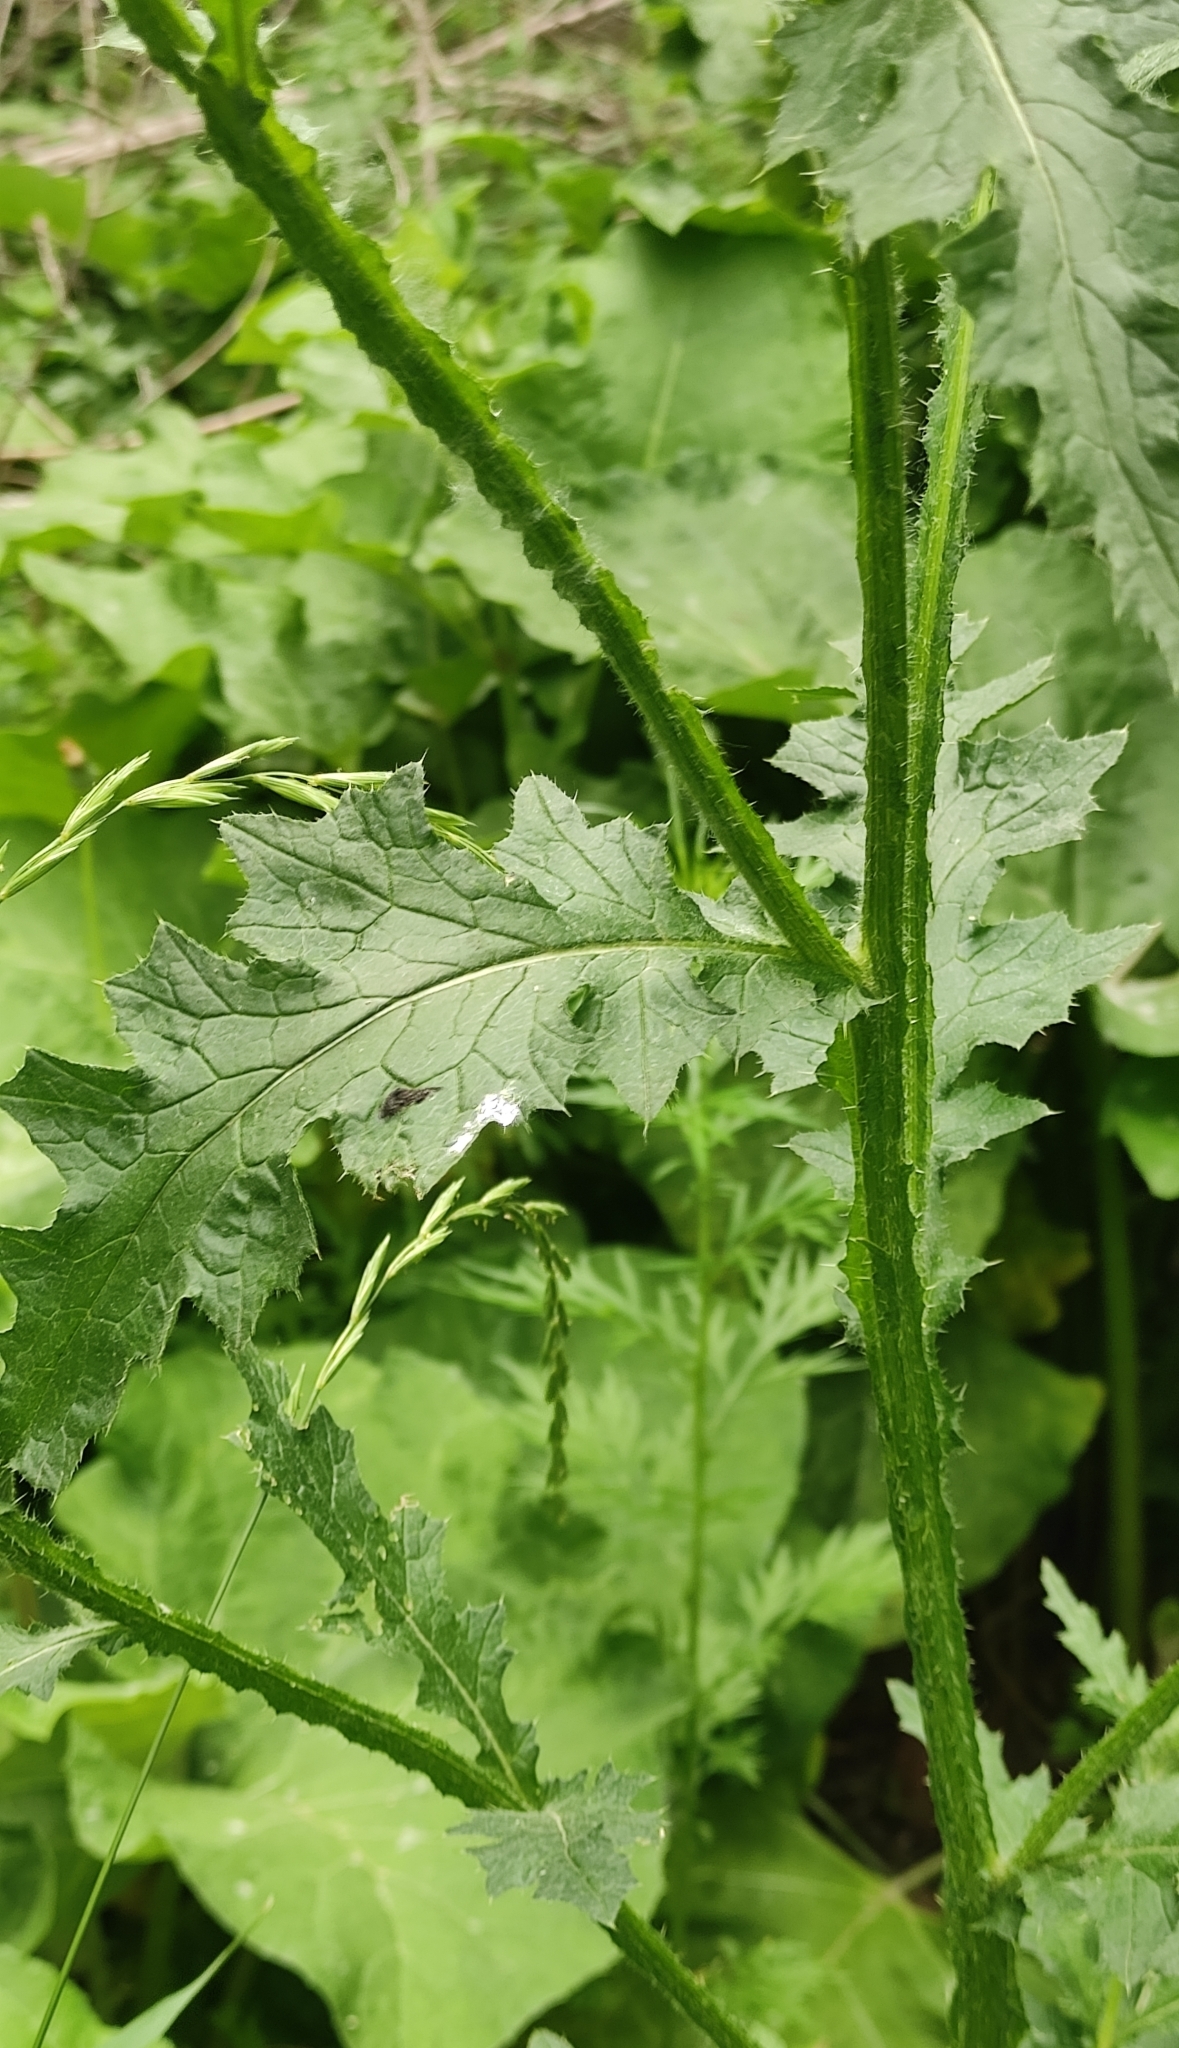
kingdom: Plantae
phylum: Tracheophyta
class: Magnoliopsida
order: Asterales
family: Asteraceae
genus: Carduus
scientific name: Carduus crispus
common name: Welted thistle
